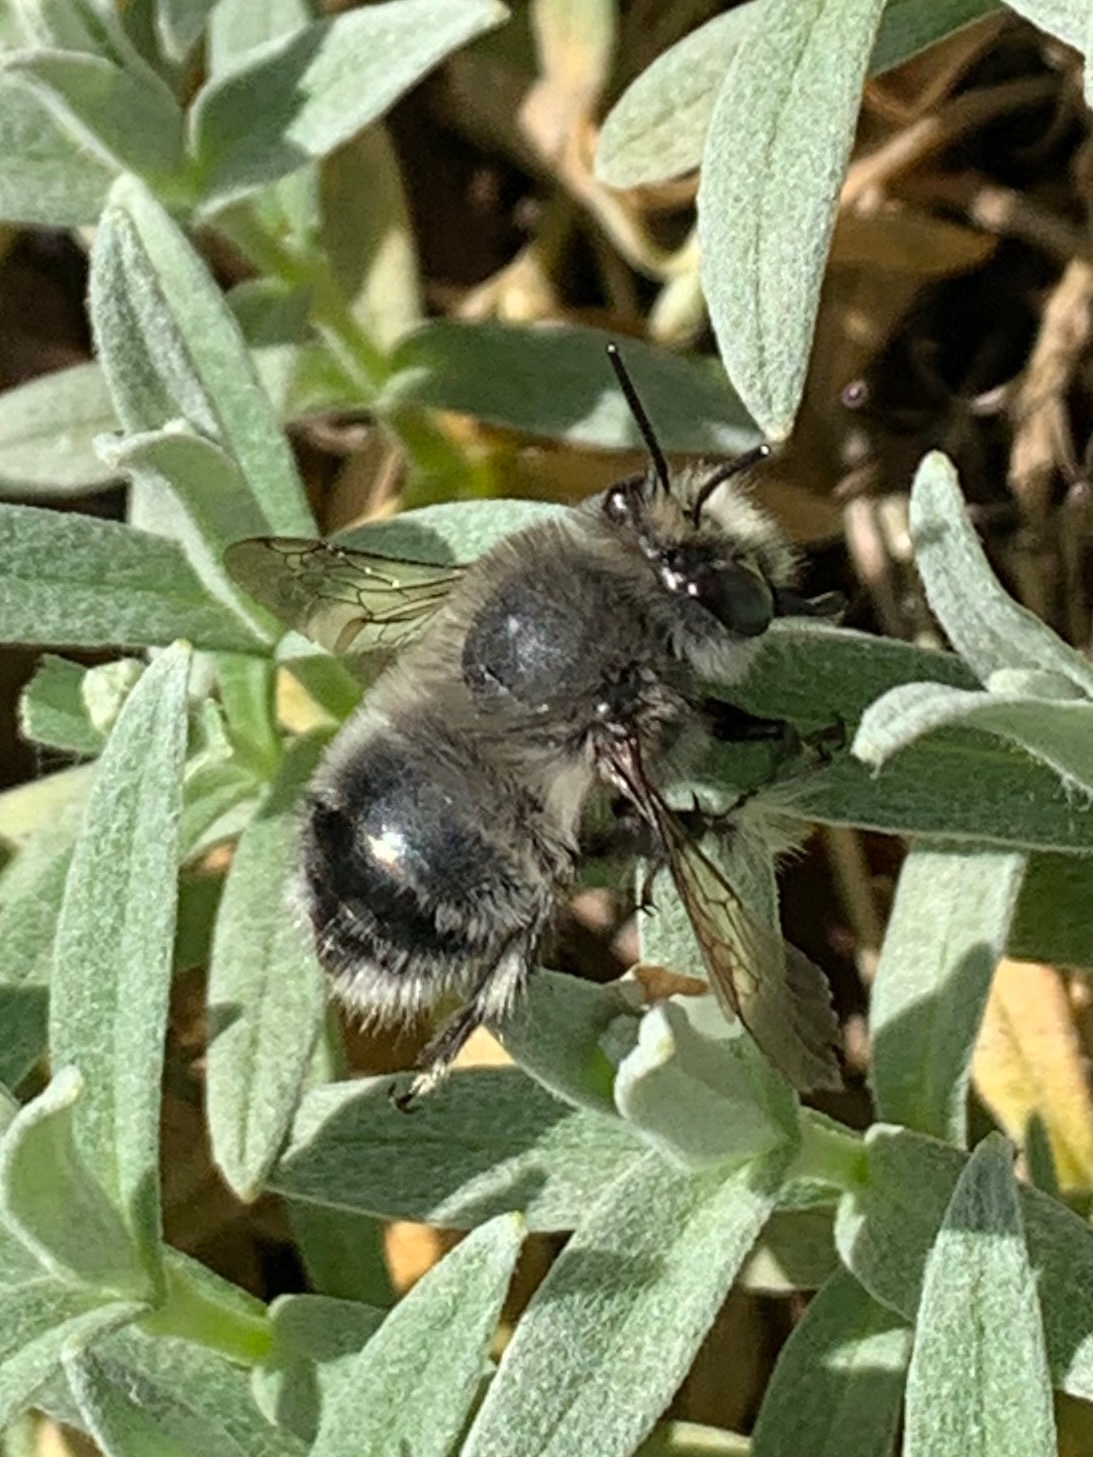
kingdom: Animalia
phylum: Arthropoda
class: Insecta
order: Hymenoptera
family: Apidae
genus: Anthophora
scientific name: Anthophora pacifica
